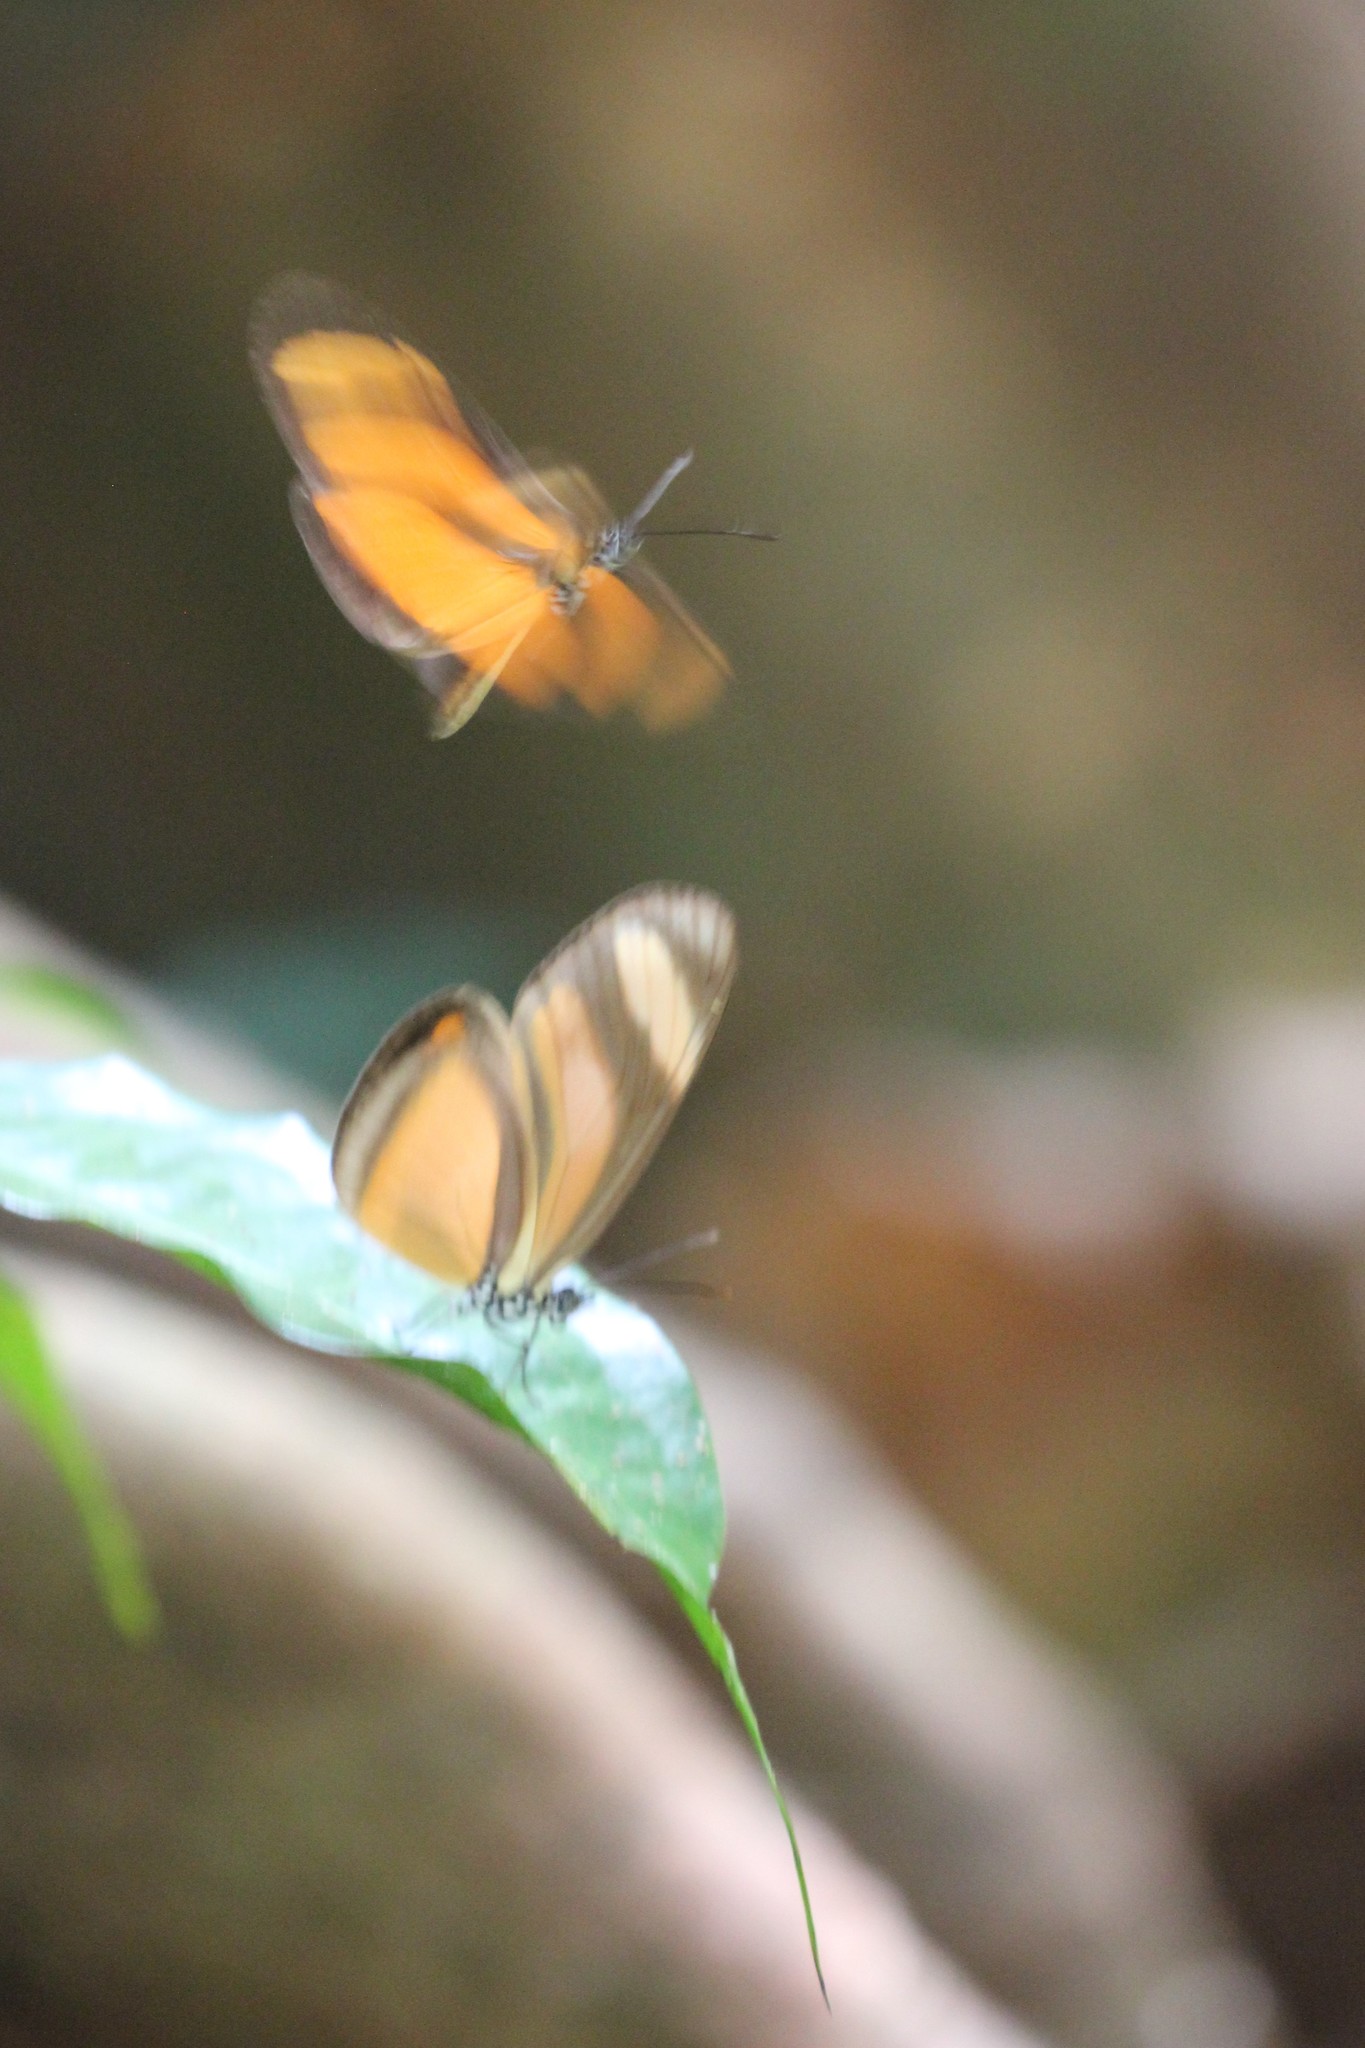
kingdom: Animalia
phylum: Arthropoda
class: Insecta
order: Lepidoptera
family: Nymphalidae
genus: Eueides
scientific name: Eueides olympia
